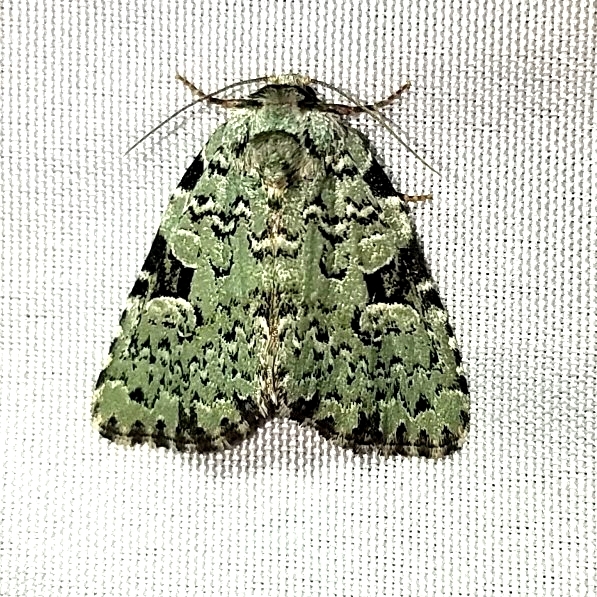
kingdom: Animalia
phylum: Arthropoda
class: Insecta
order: Lepidoptera
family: Noctuidae
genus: Leuconycta
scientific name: Leuconycta diphteroides
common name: Green leuconycta moth
